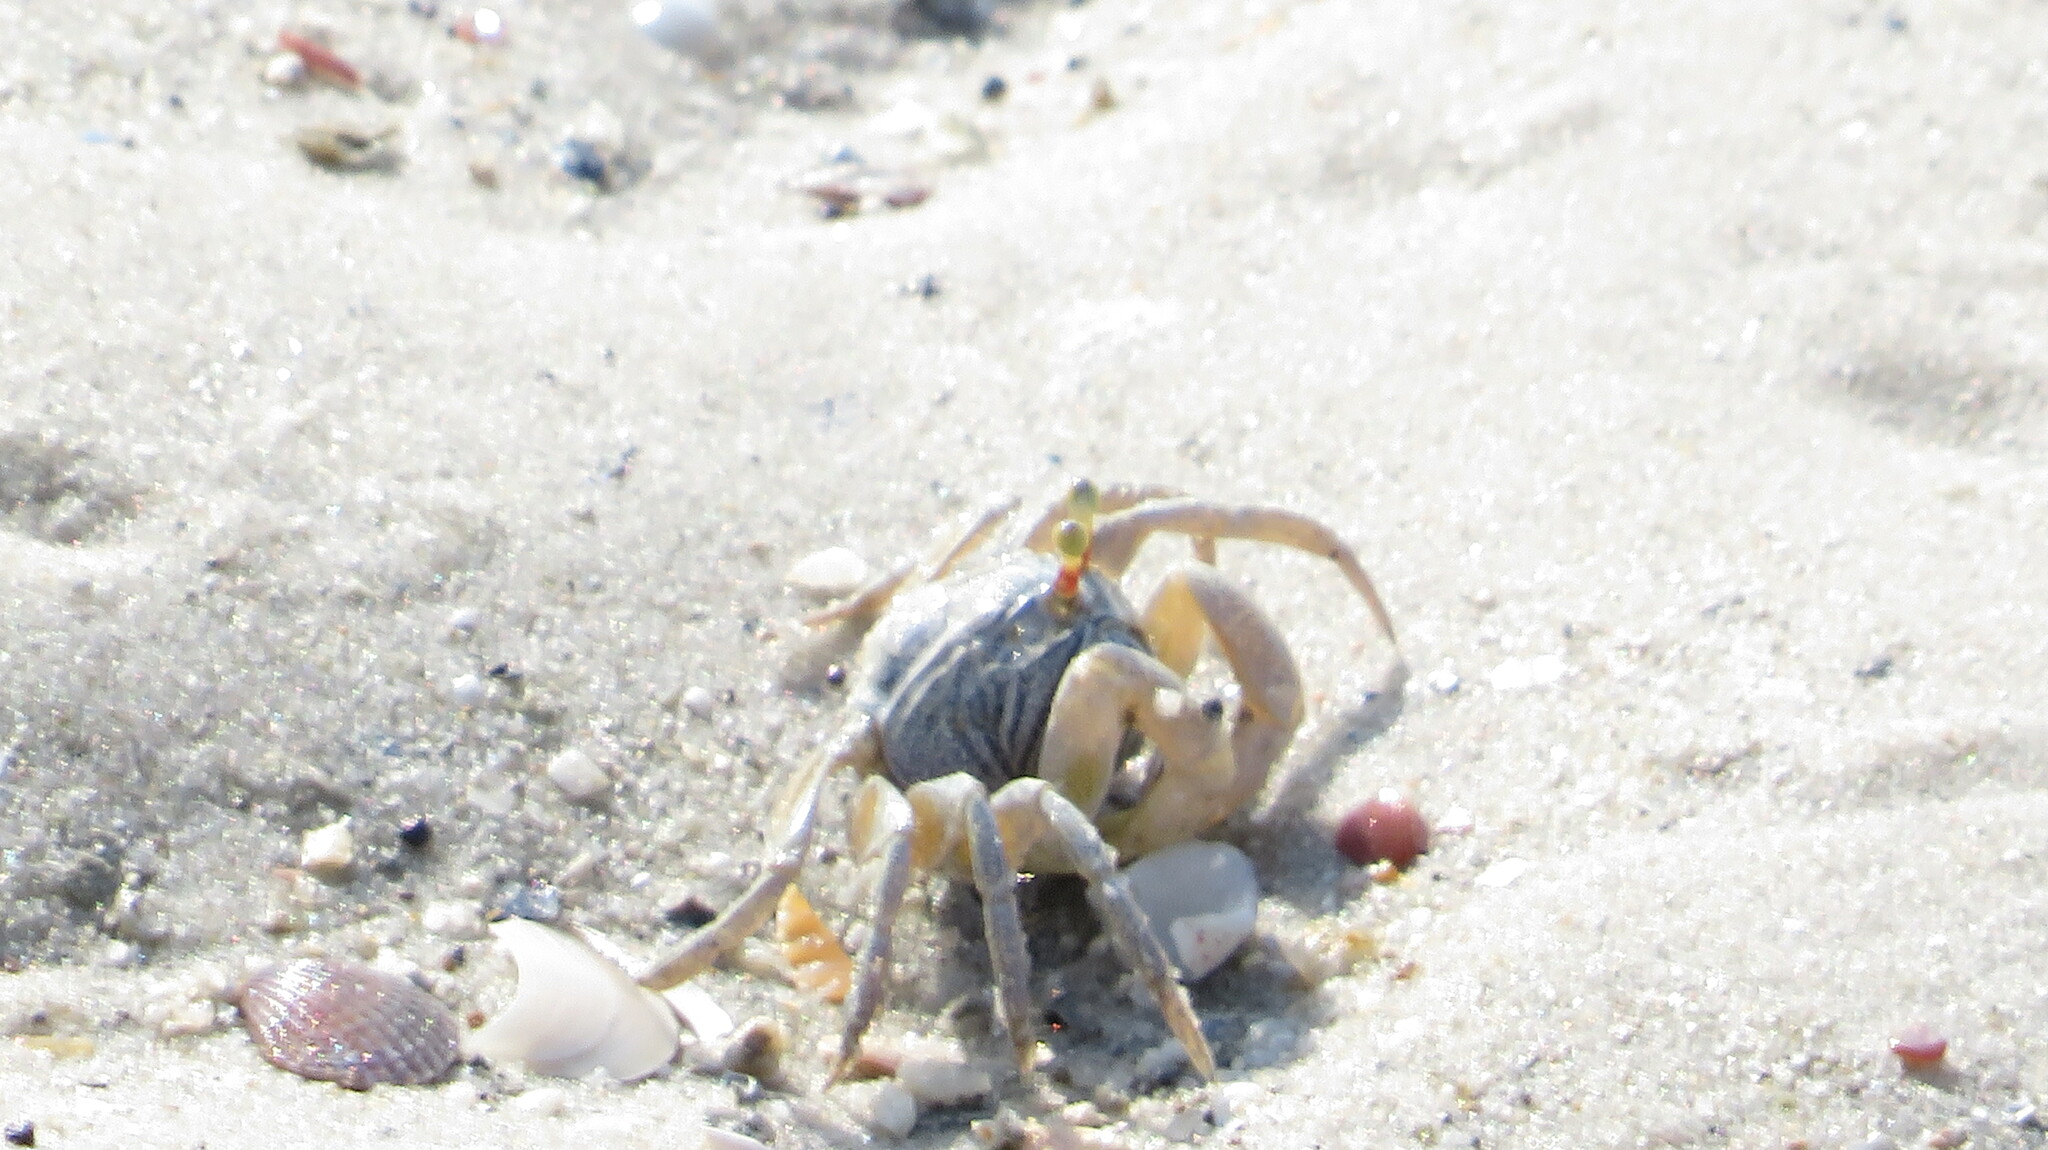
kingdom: Animalia
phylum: Arthropoda
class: Malacostraca
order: Decapoda
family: Dotillidae
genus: Dotilla
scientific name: Dotilla myctiroides
